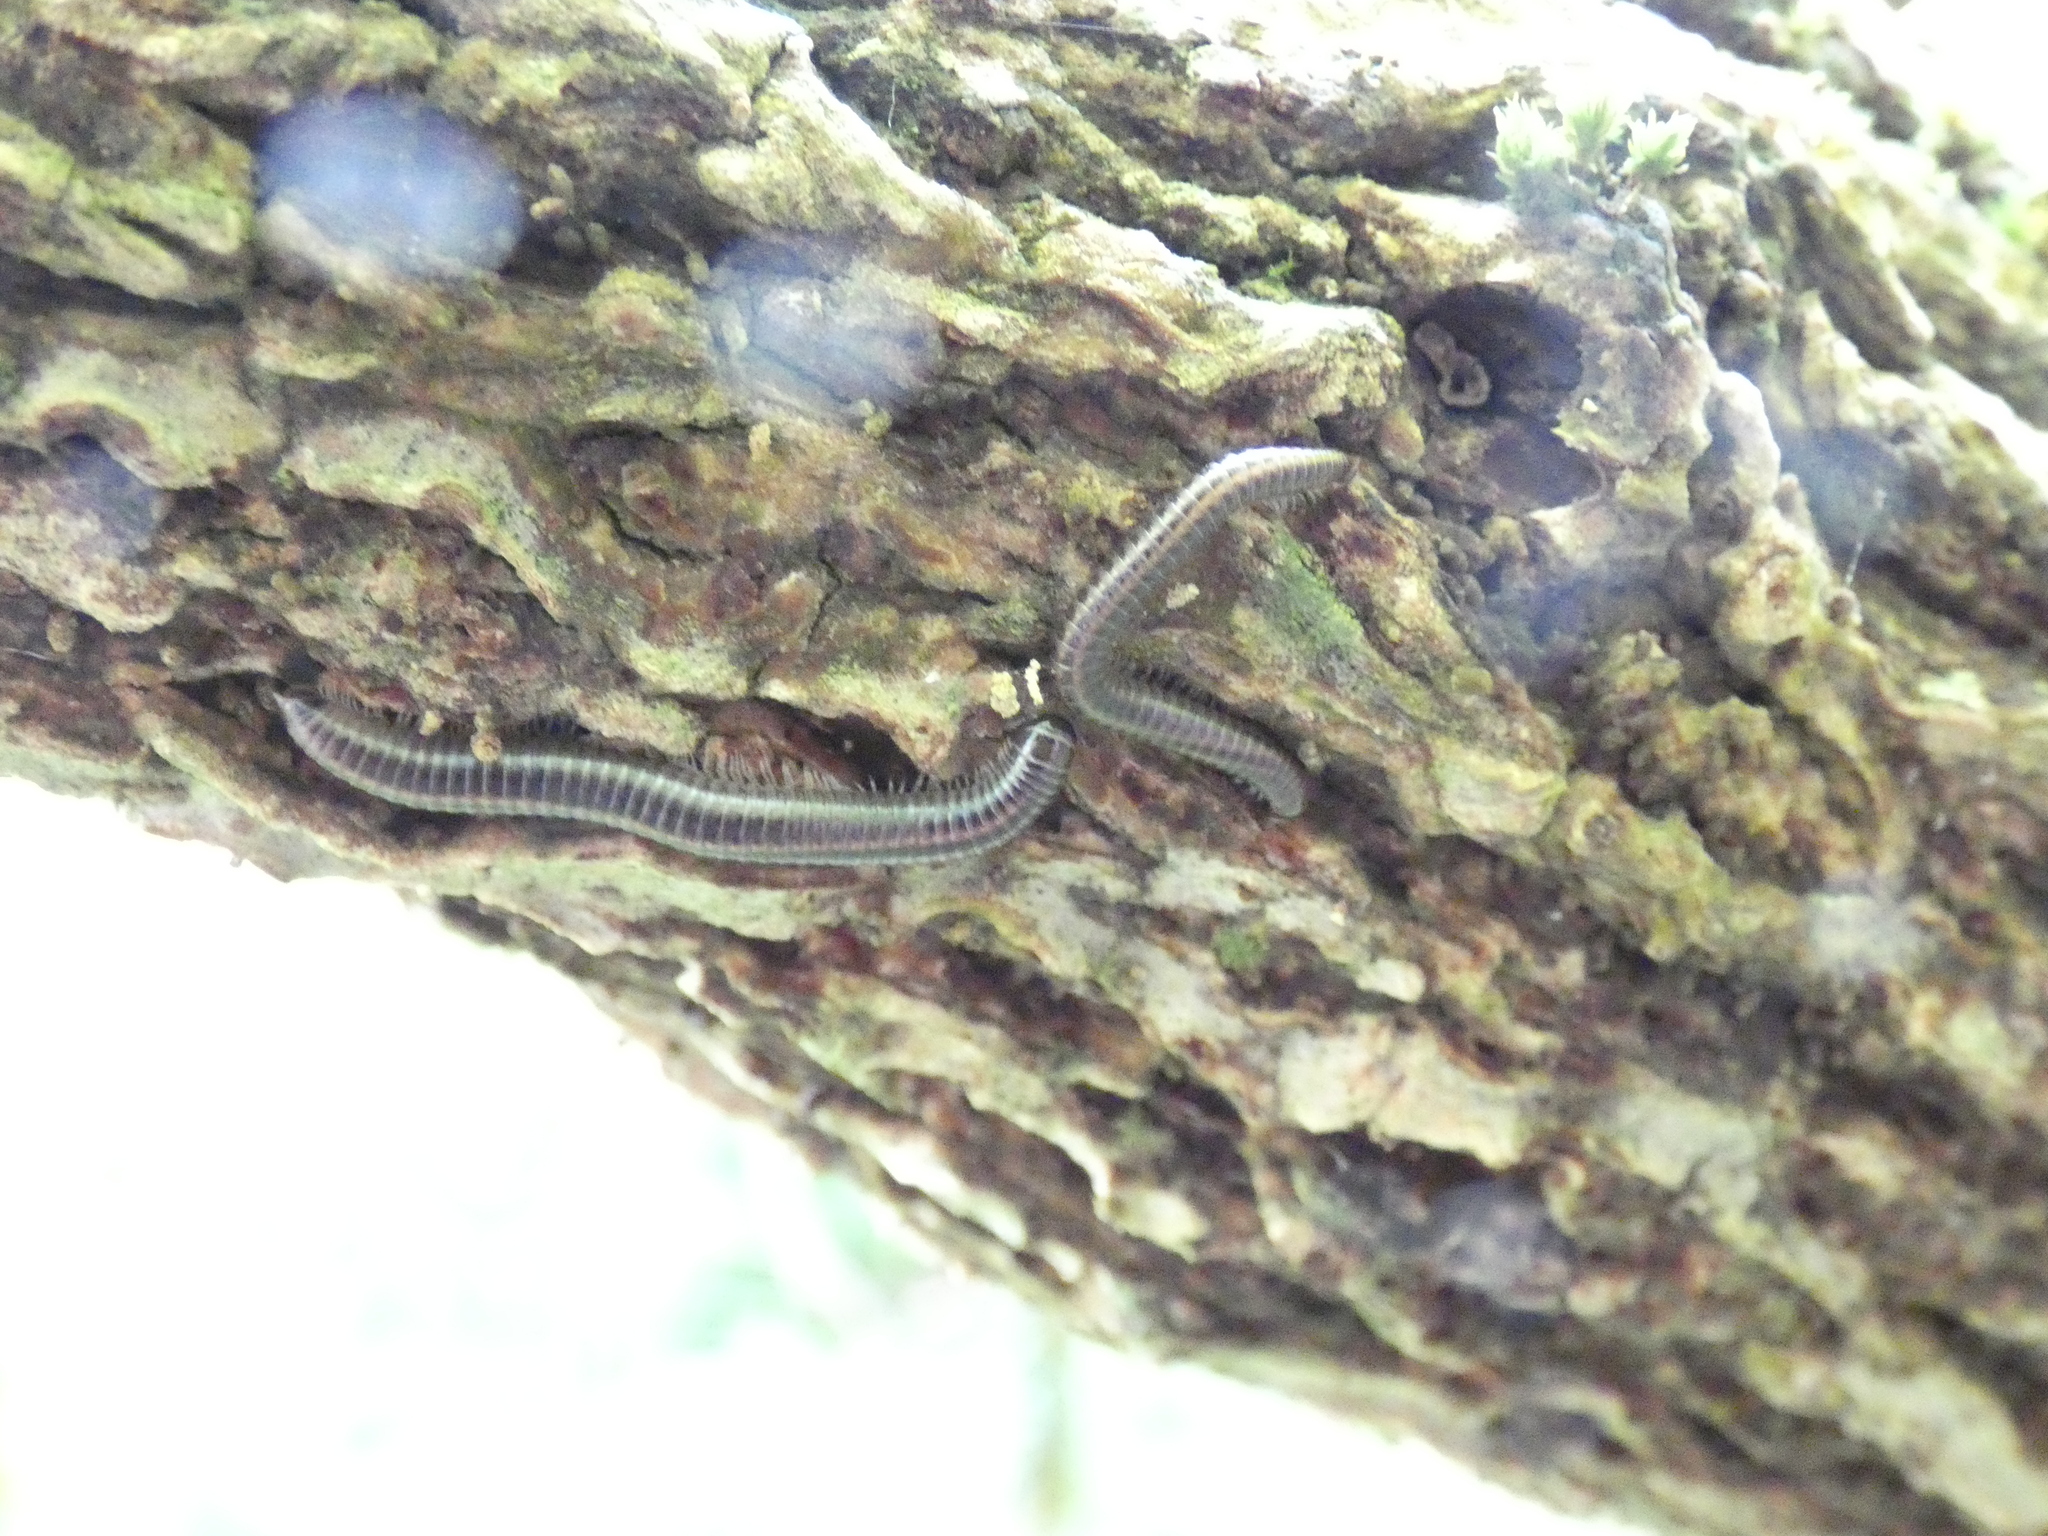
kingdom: Animalia
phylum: Arthropoda
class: Diplopoda
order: Julida
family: Julidae
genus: Ommatoiulus
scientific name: Ommatoiulus sabulosus
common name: Striped millipede
